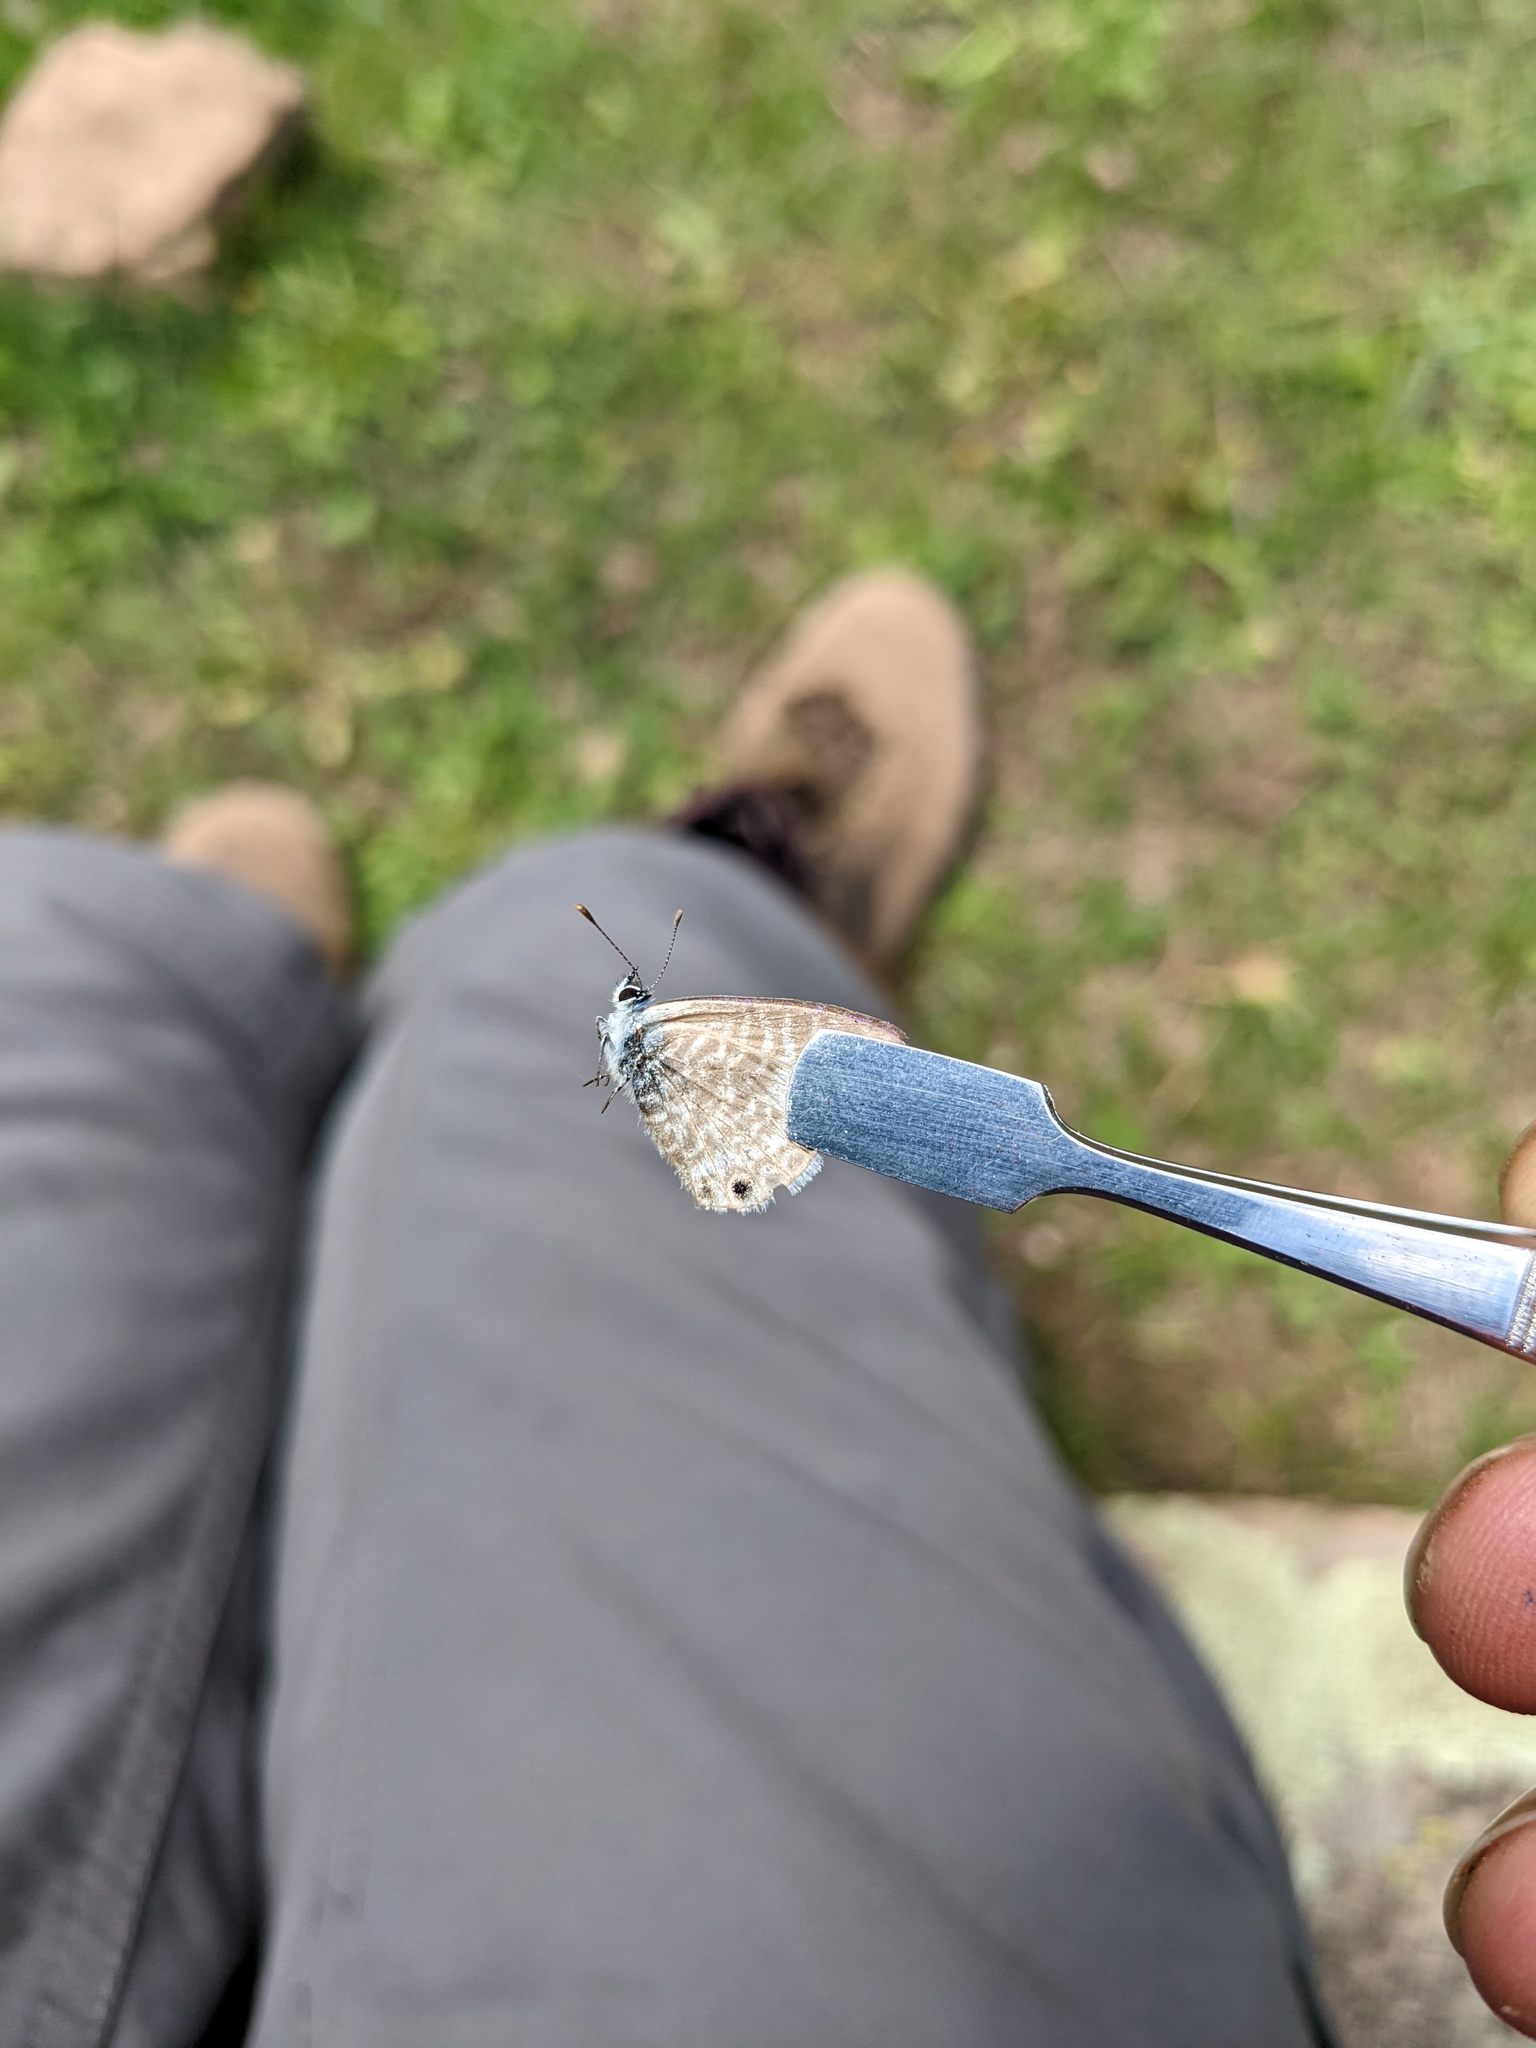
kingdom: Animalia
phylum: Arthropoda
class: Insecta
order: Lepidoptera
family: Lycaenidae
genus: Leptotes
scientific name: Leptotes marina
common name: Marine blue
